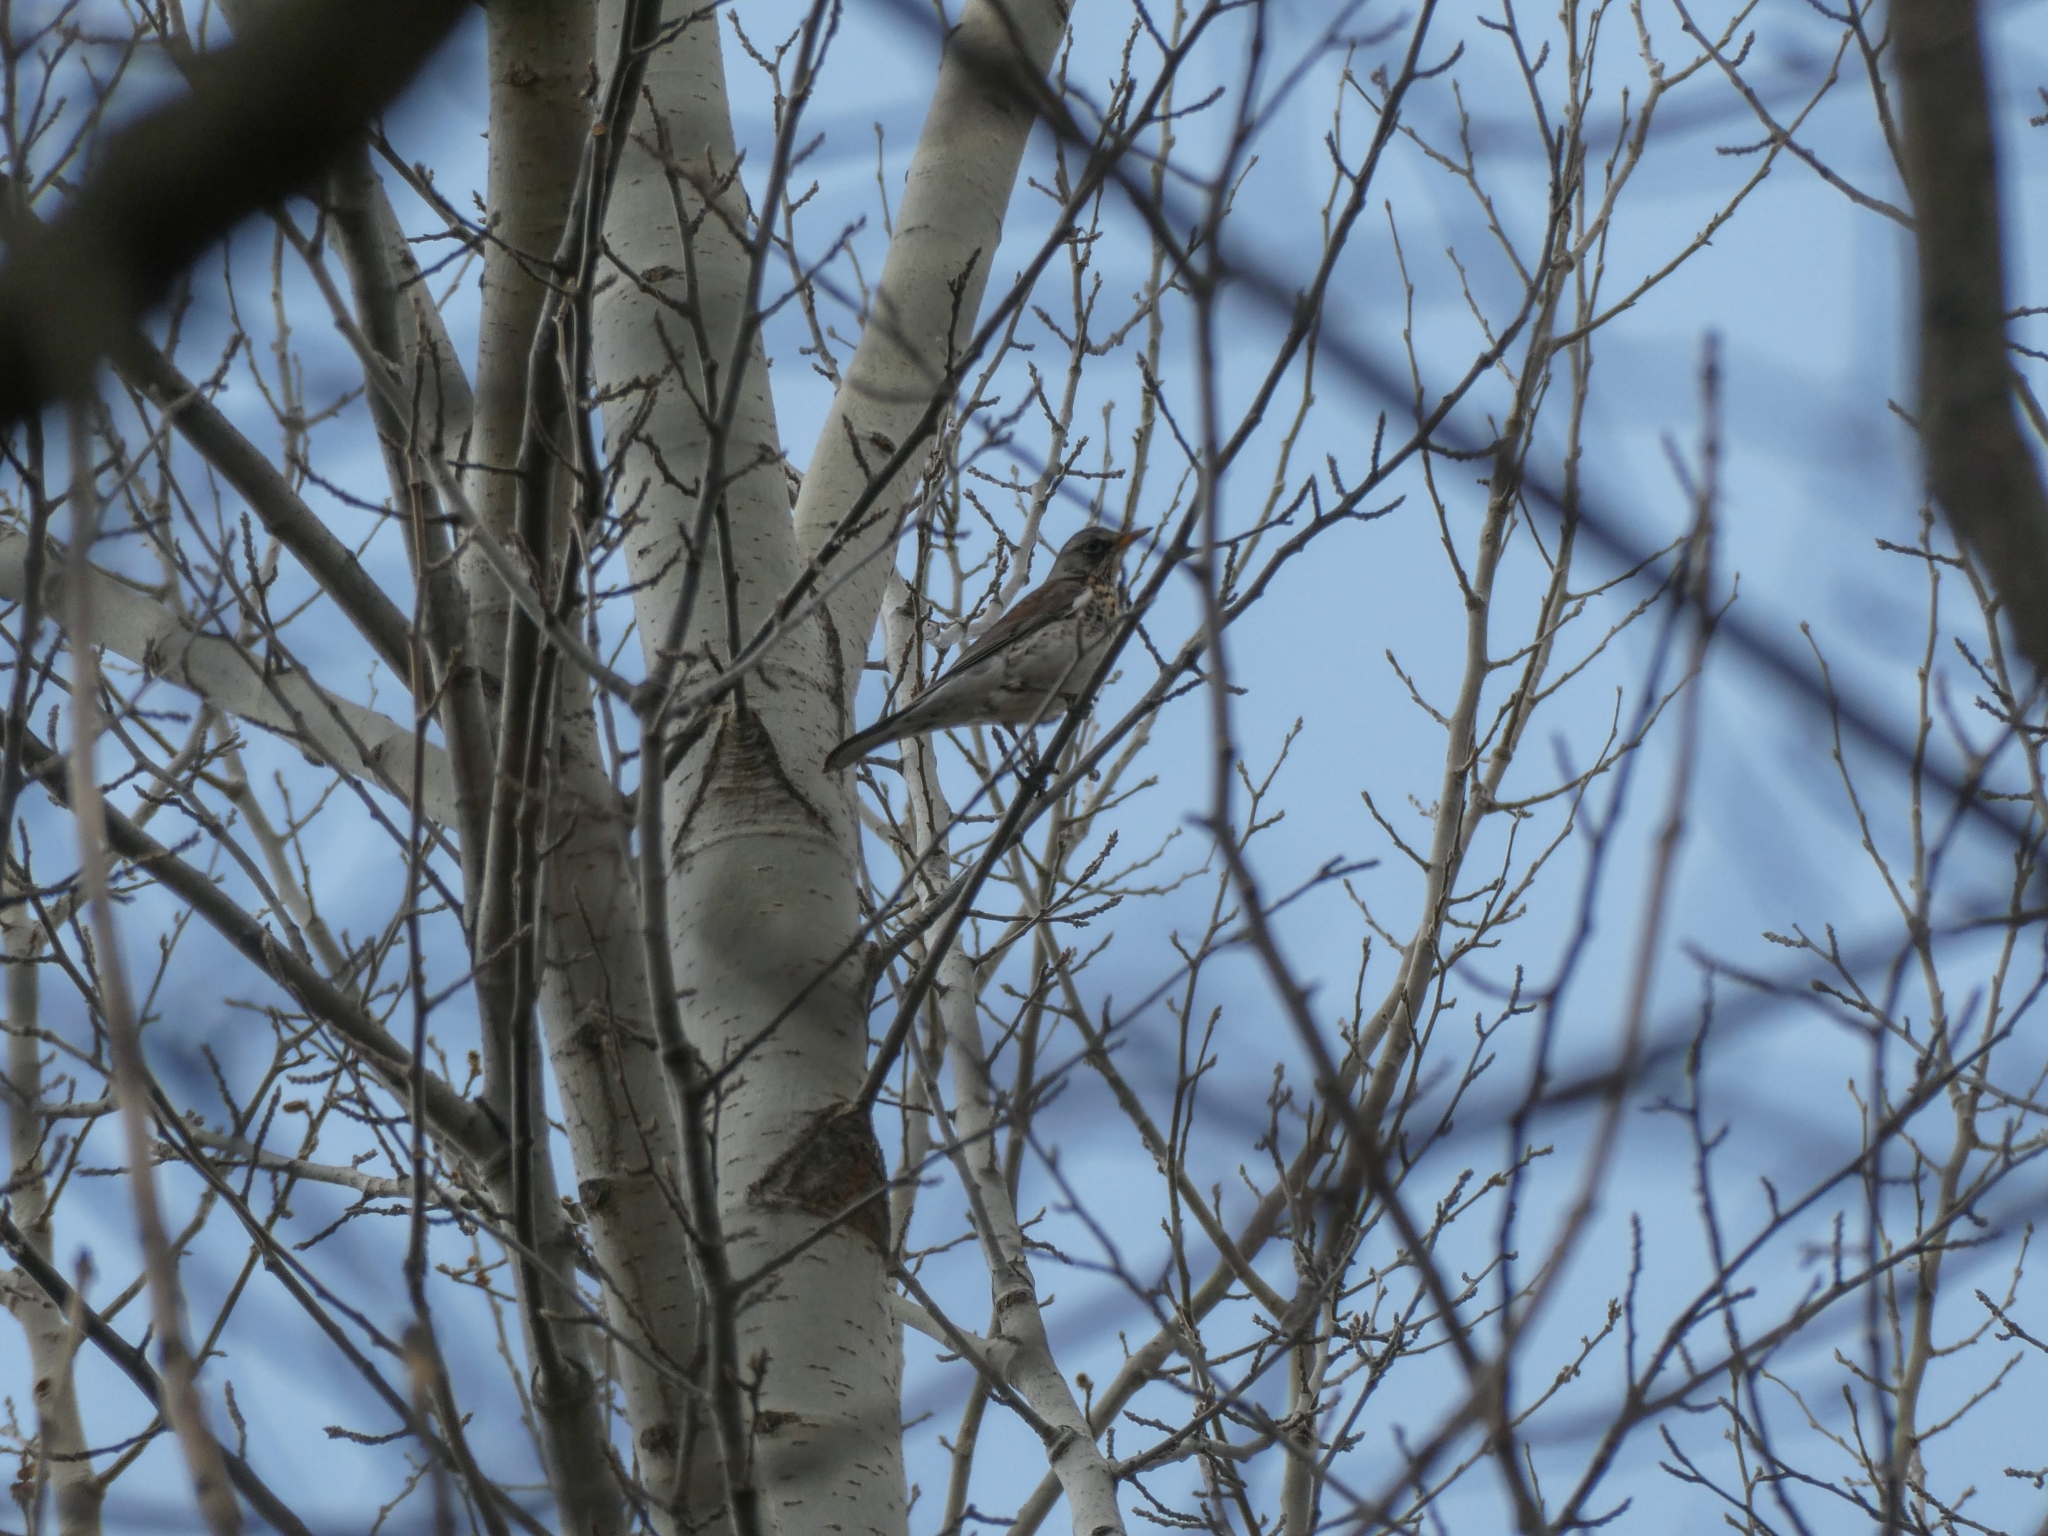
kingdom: Animalia
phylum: Chordata
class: Aves
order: Passeriformes
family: Turdidae
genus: Turdus
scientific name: Turdus pilaris
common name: Fieldfare
